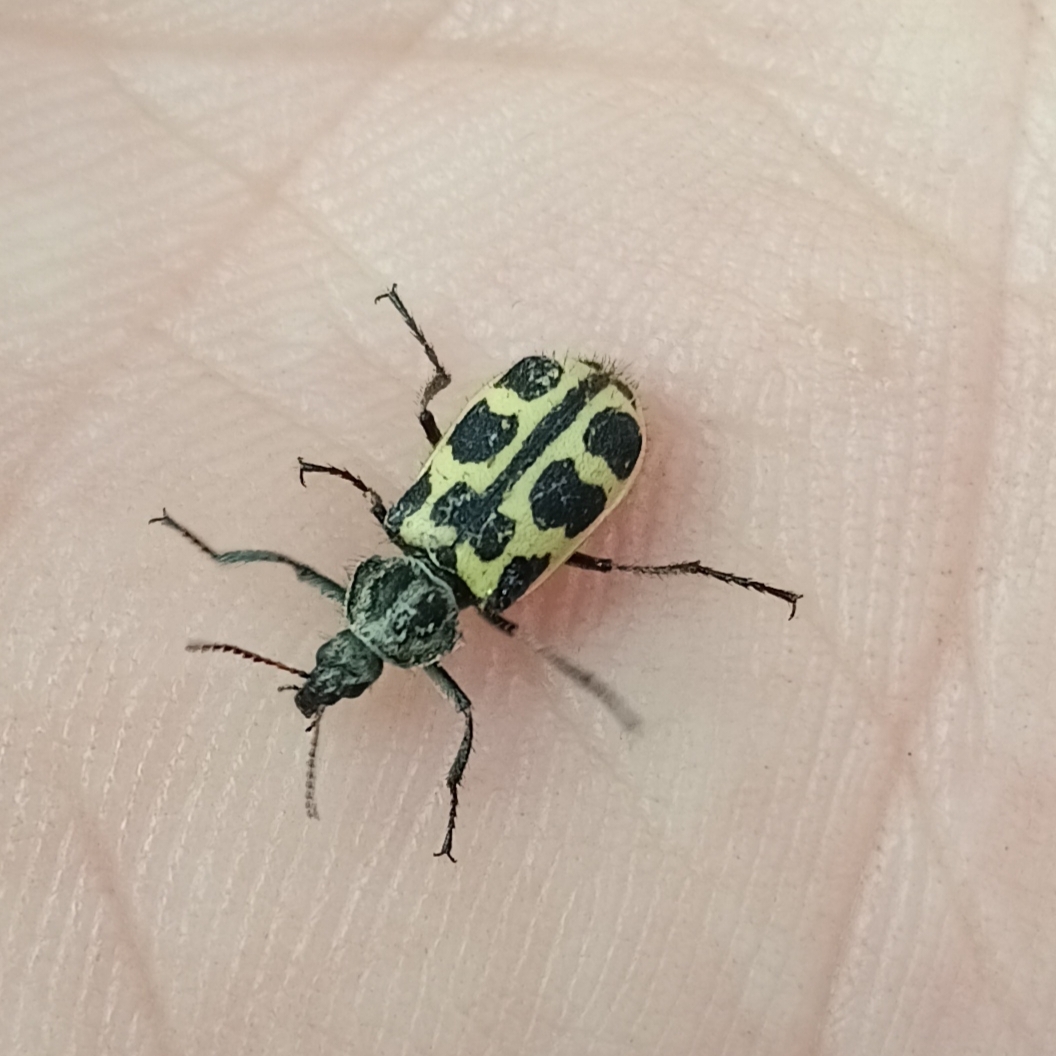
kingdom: Animalia
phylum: Arthropoda
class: Insecta
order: Coleoptera
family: Melyridae
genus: Astylus
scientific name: Astylus atromaculatus
